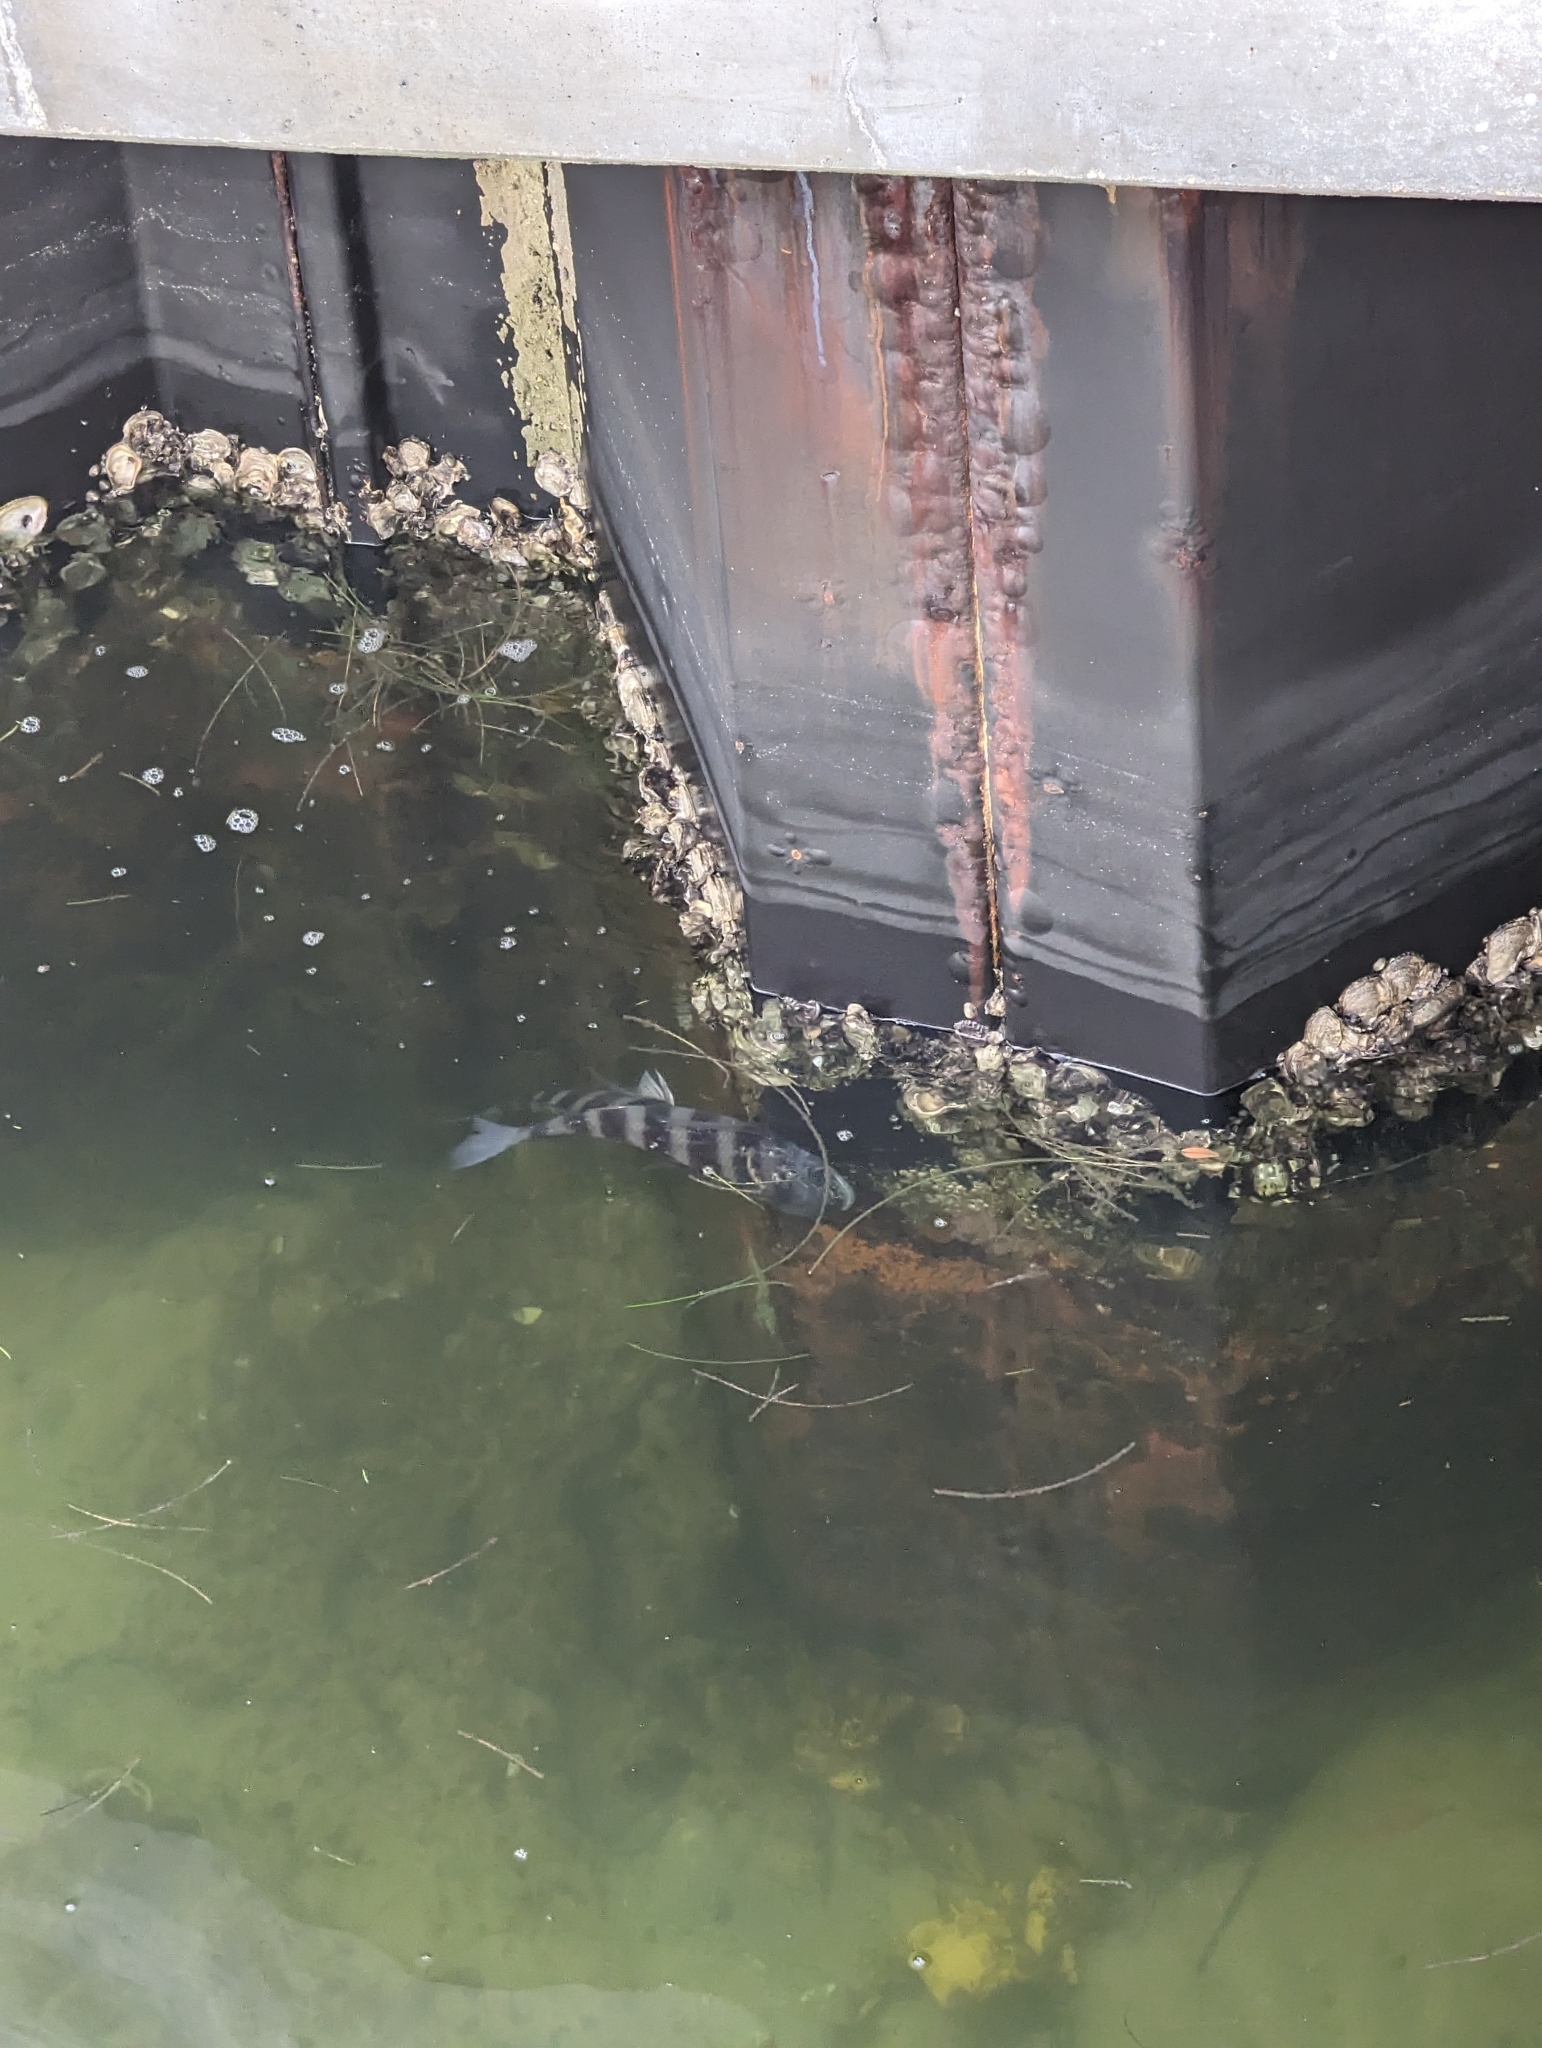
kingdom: Animalia
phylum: Chordata
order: Perciformes
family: Sparidae
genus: Archosargus
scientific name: Archosargus probatocephalus
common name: Sheepshead
